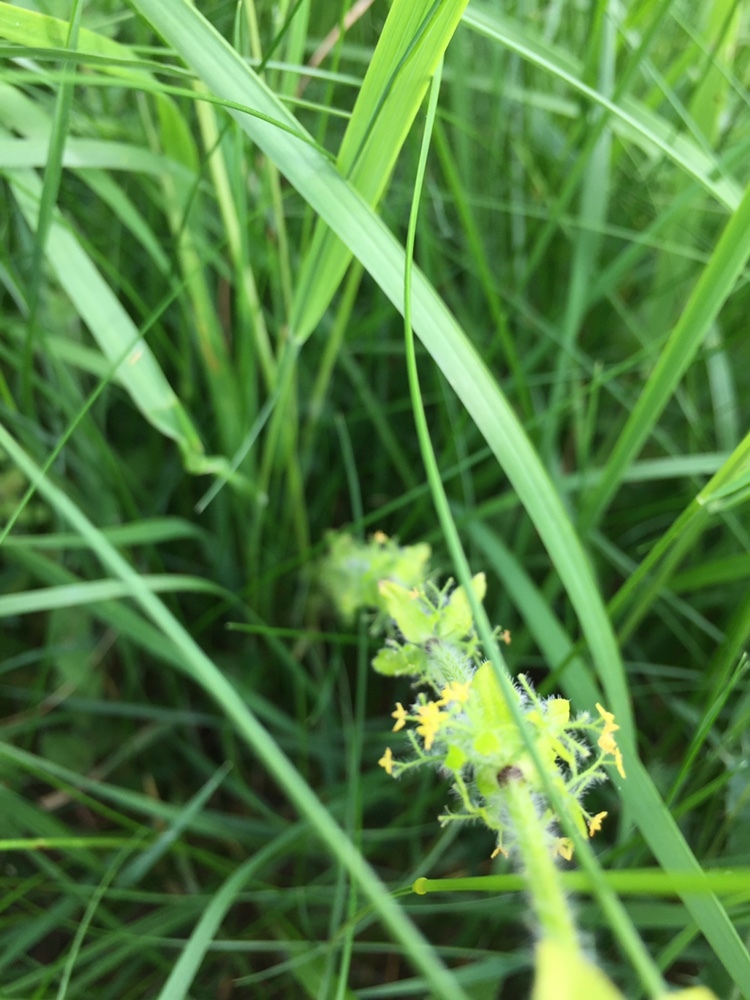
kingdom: Plantae
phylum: Tracheophyta
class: Magnoliopsida
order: Gentianales
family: Rubiaceae
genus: Cruciata
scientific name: Cruciata laevipes
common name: Crosswort
